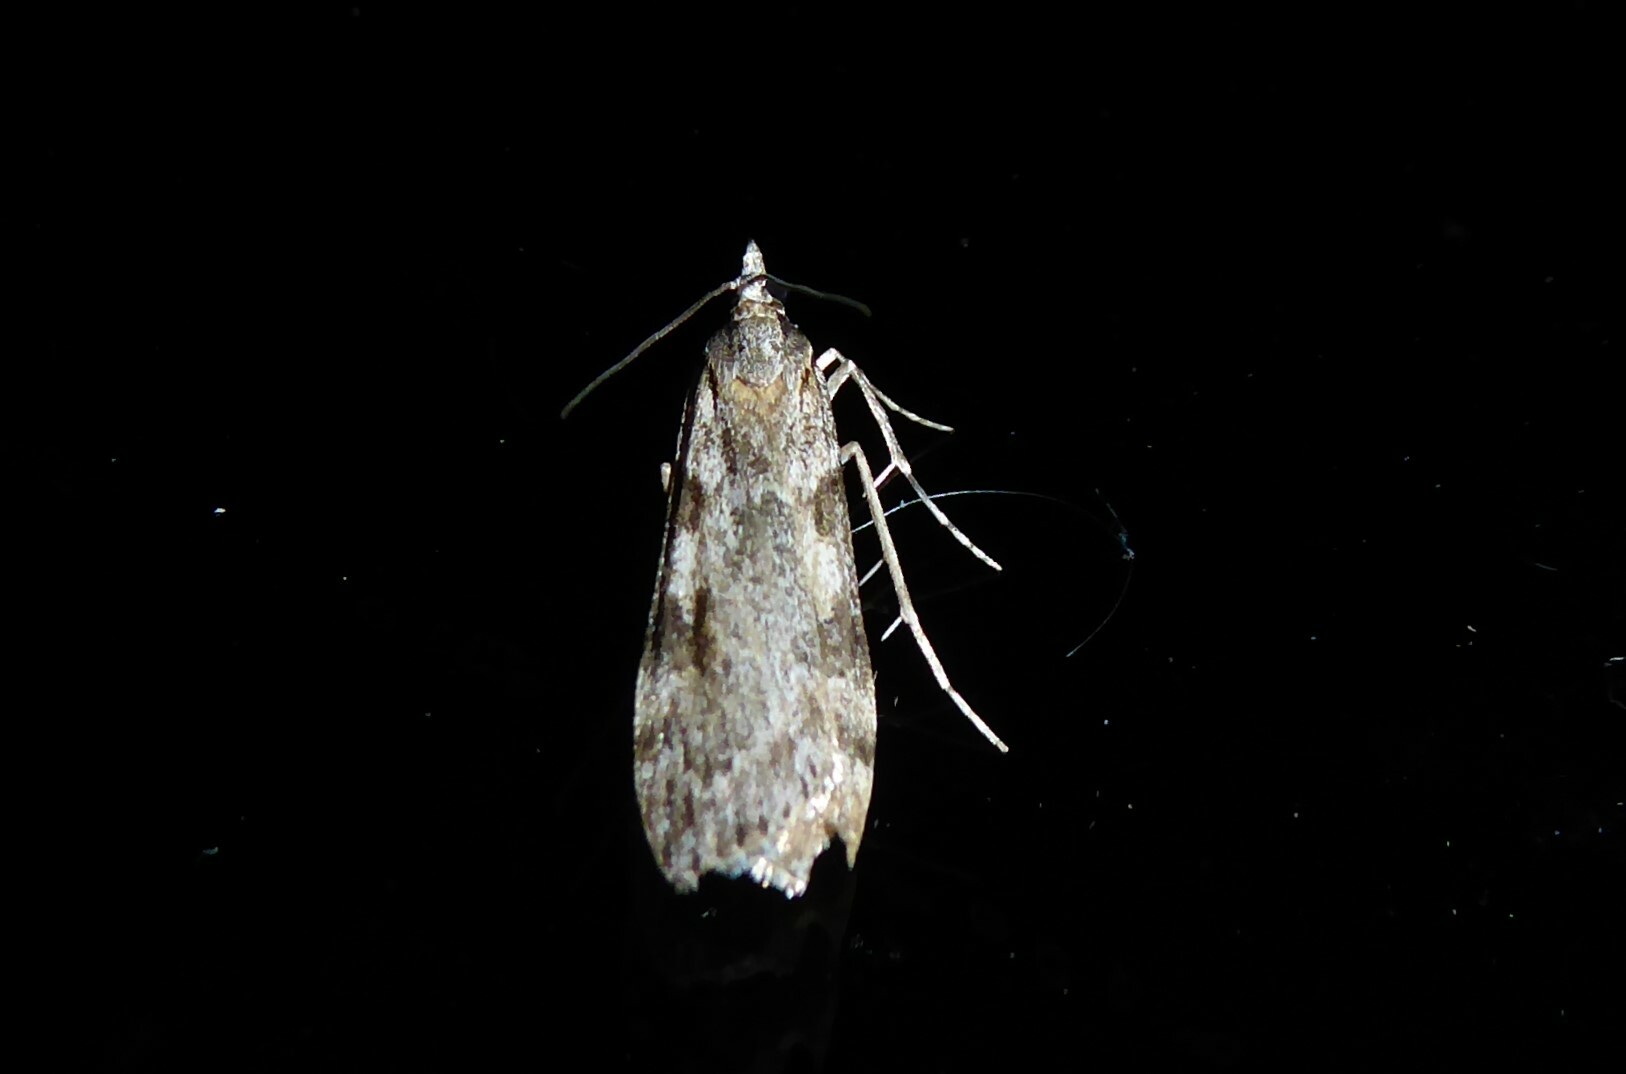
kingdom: Animalia
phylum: Arthropoda
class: Insecta
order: Lepidoptera
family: Crambidae
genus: Scoparia
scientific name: Scoparia halopis
